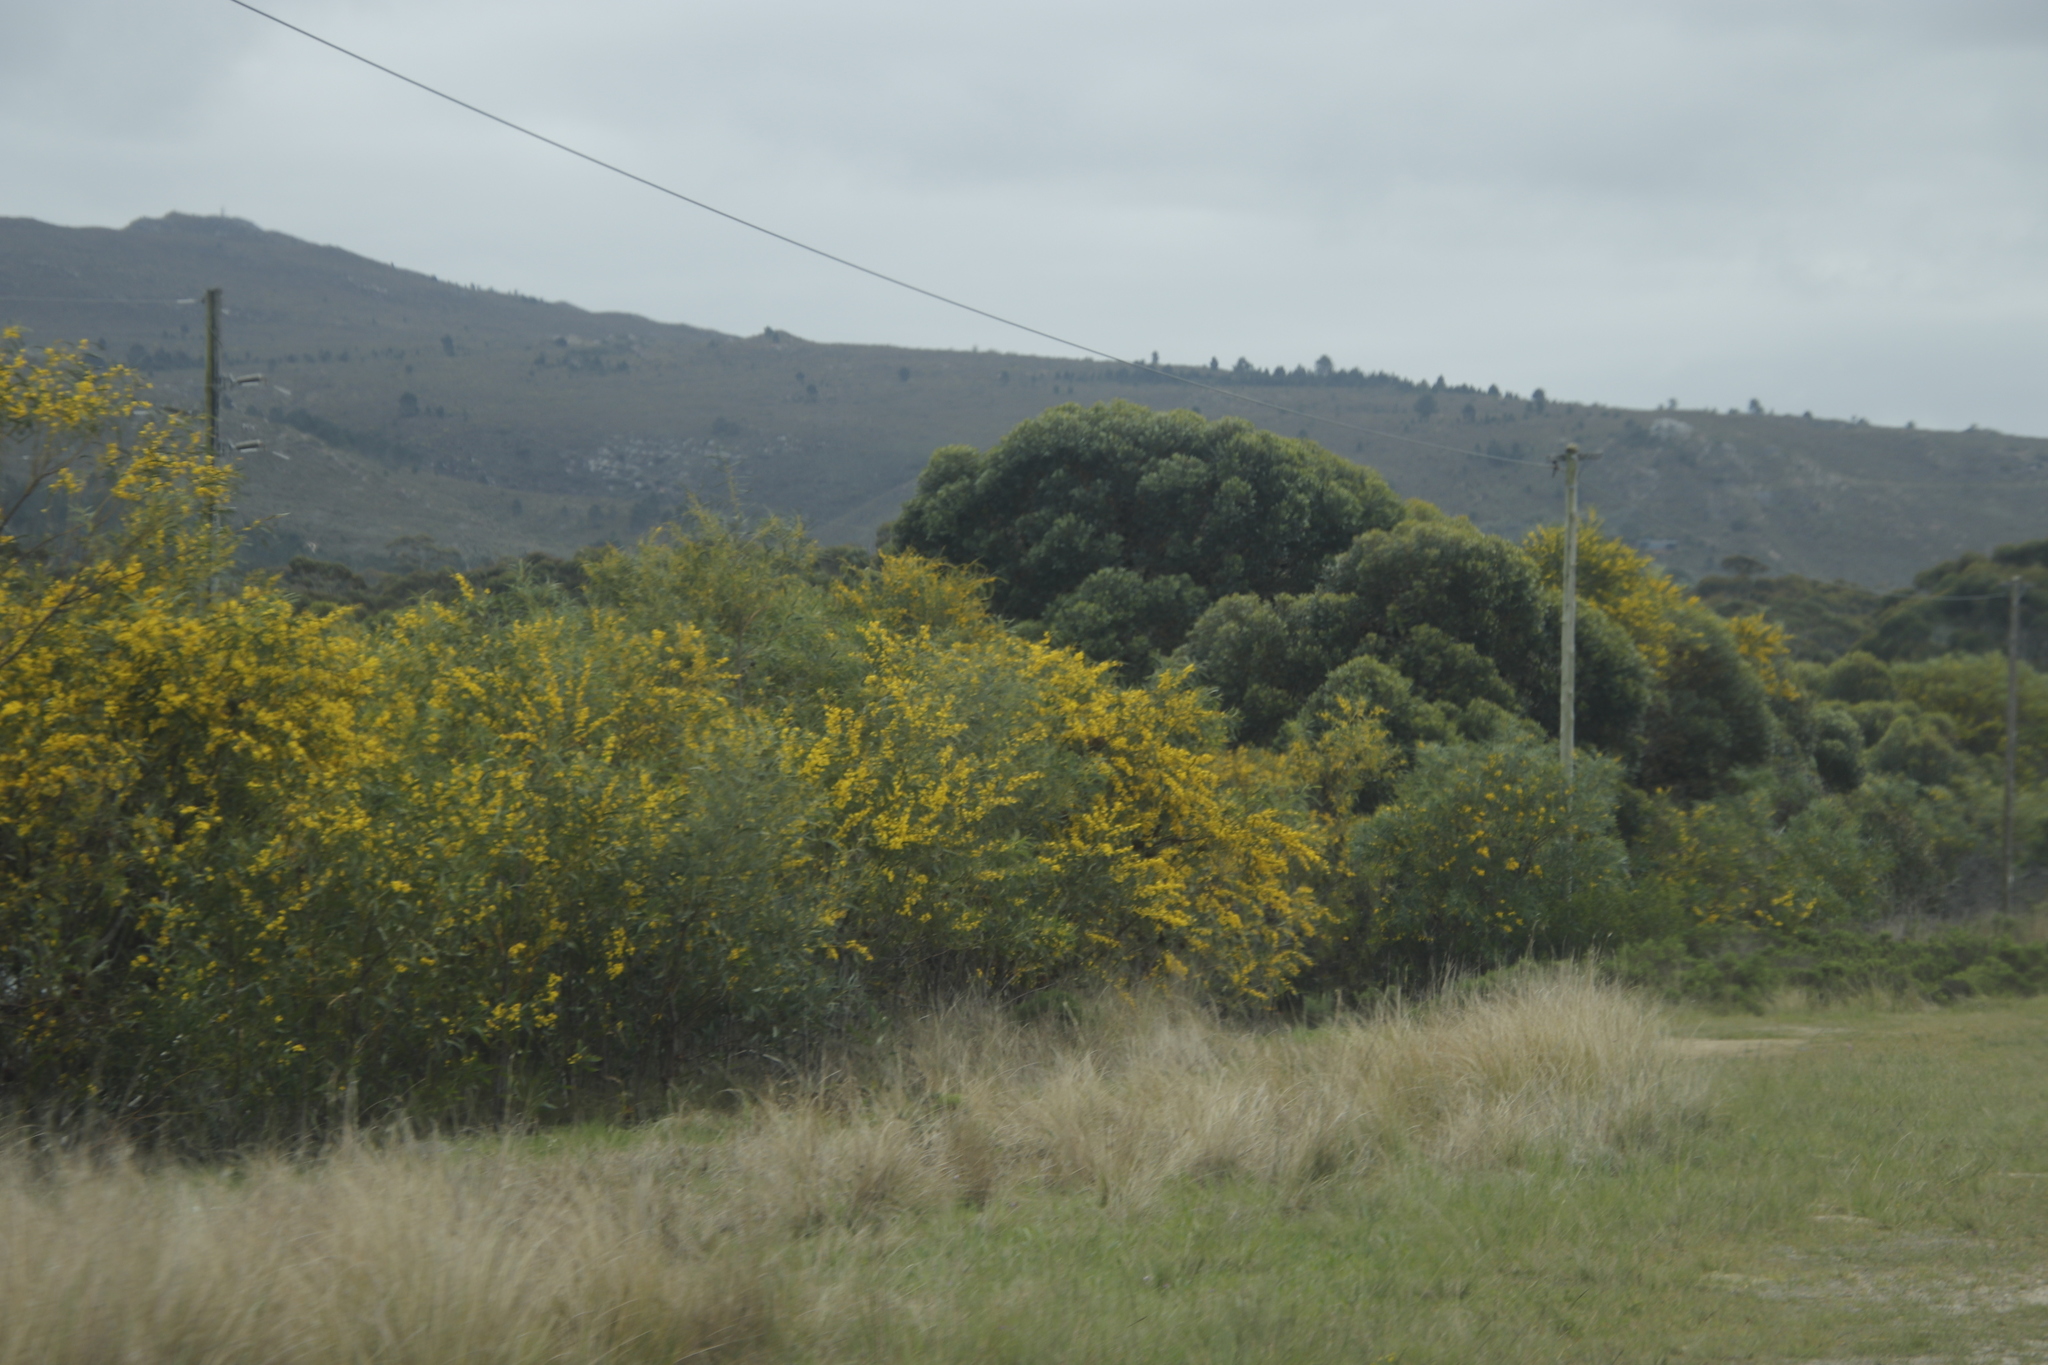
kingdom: Plantae
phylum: Tracheophyta
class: Magnoliopsida
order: Fabales
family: Fabaceae
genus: Acacia
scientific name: Acacia saligna
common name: Orange wattle
